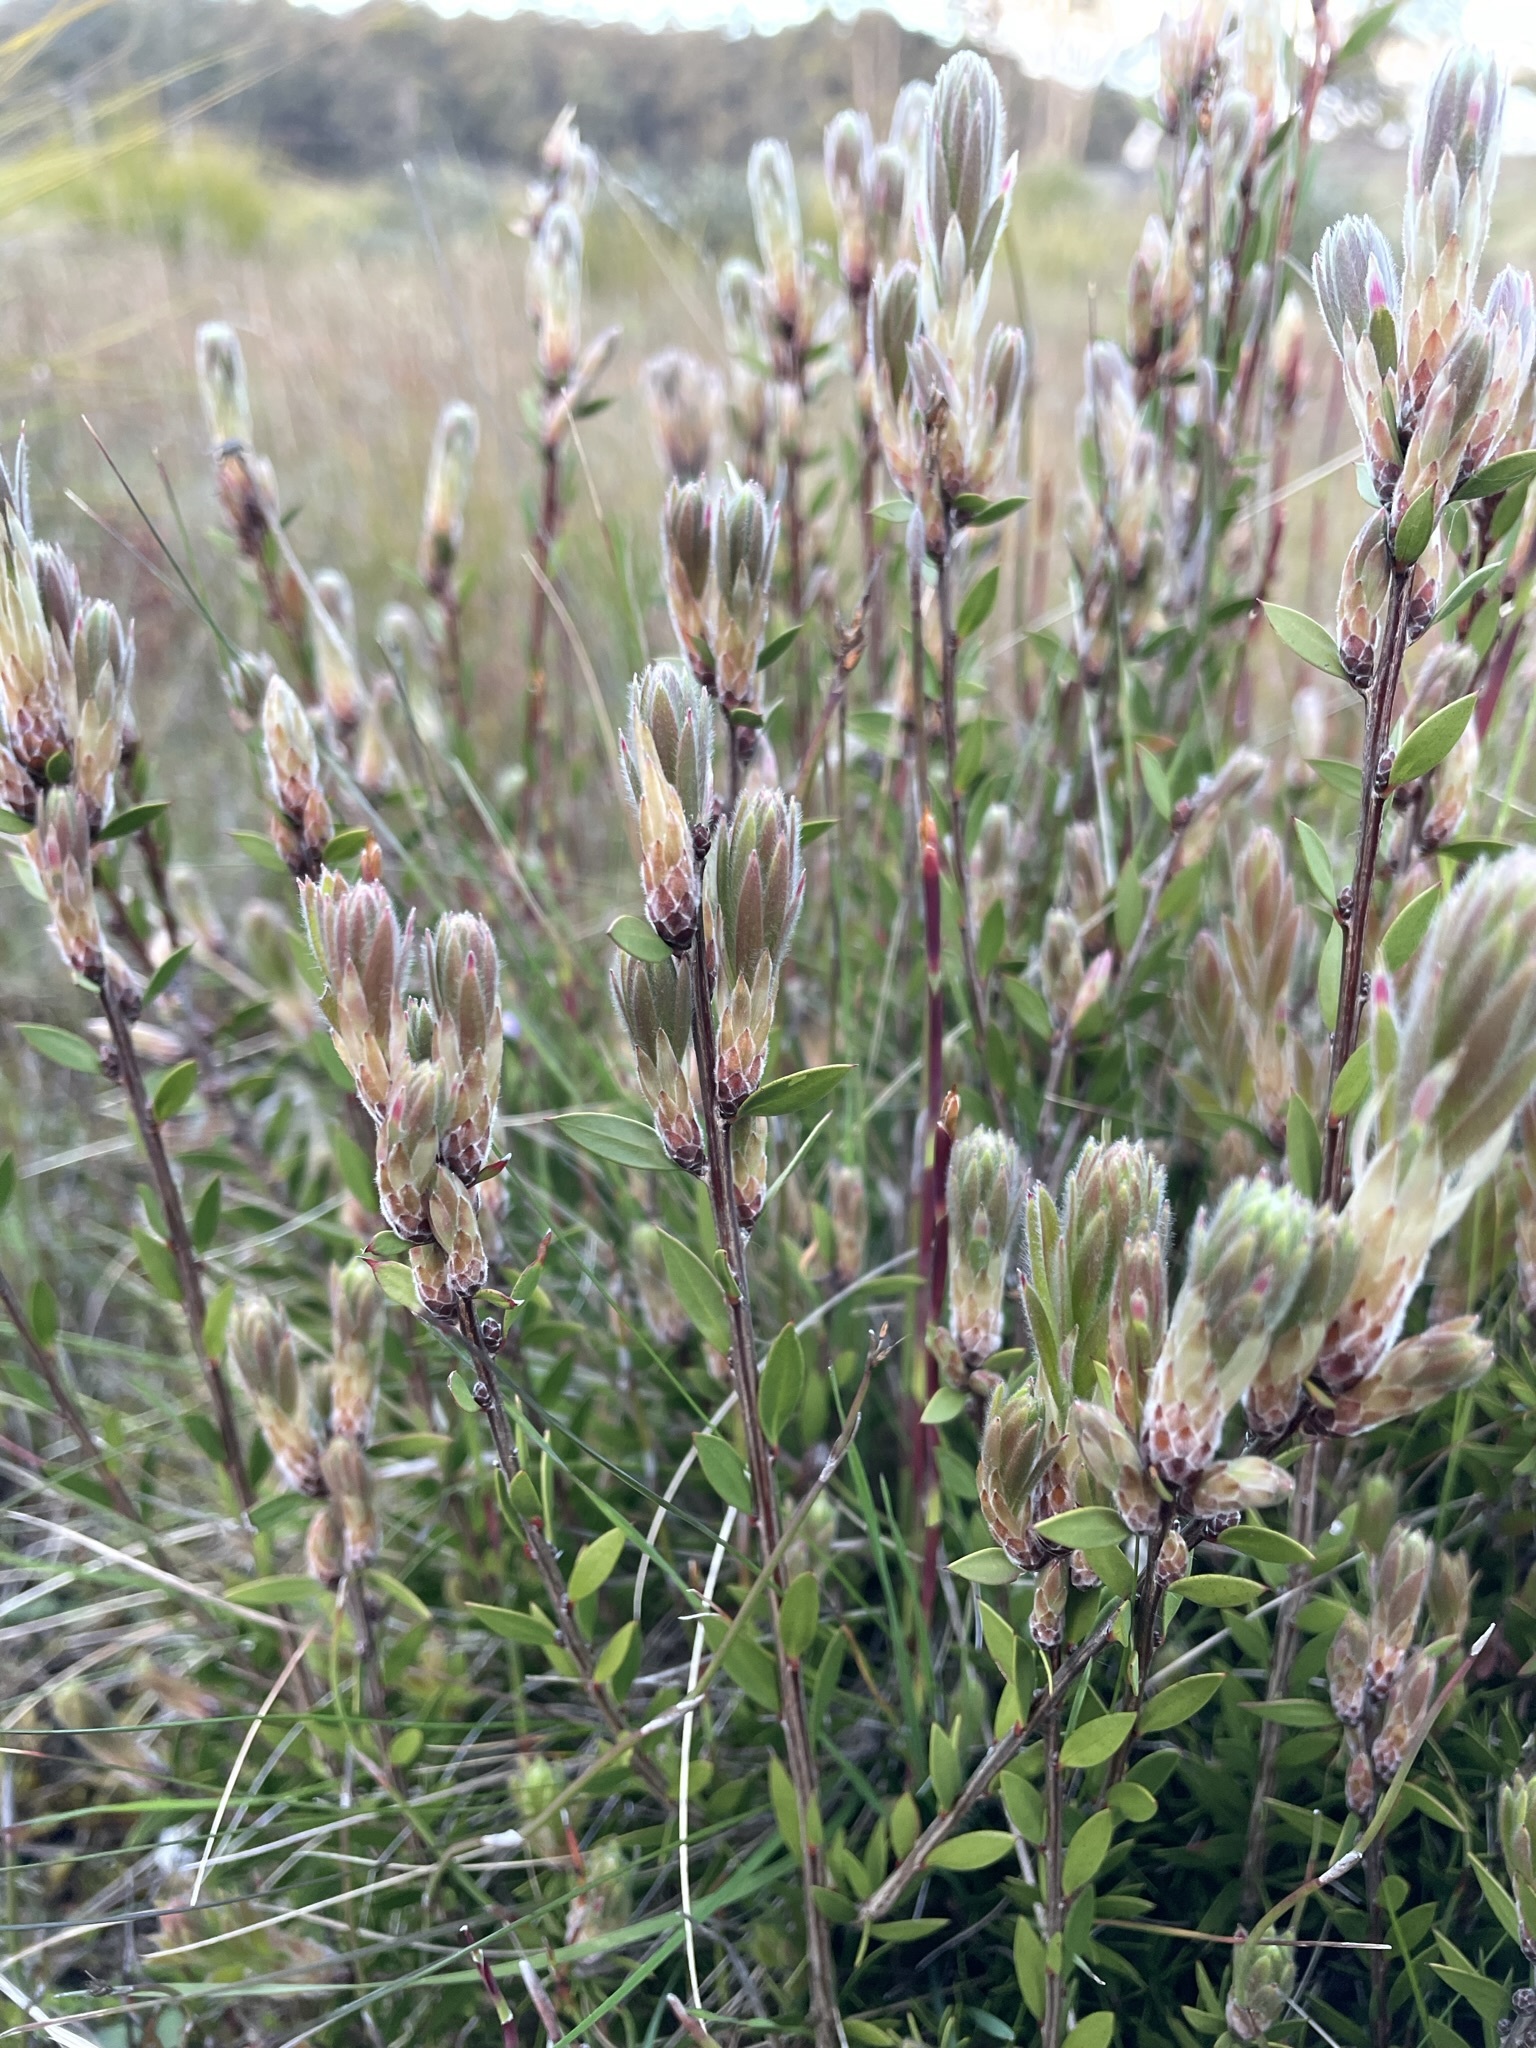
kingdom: Plantae
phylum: Tracheophyta
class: Magnoliopsida
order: Myrtales
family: Myrtaceae
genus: Callistemon
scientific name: Callistemon viridiflorus
